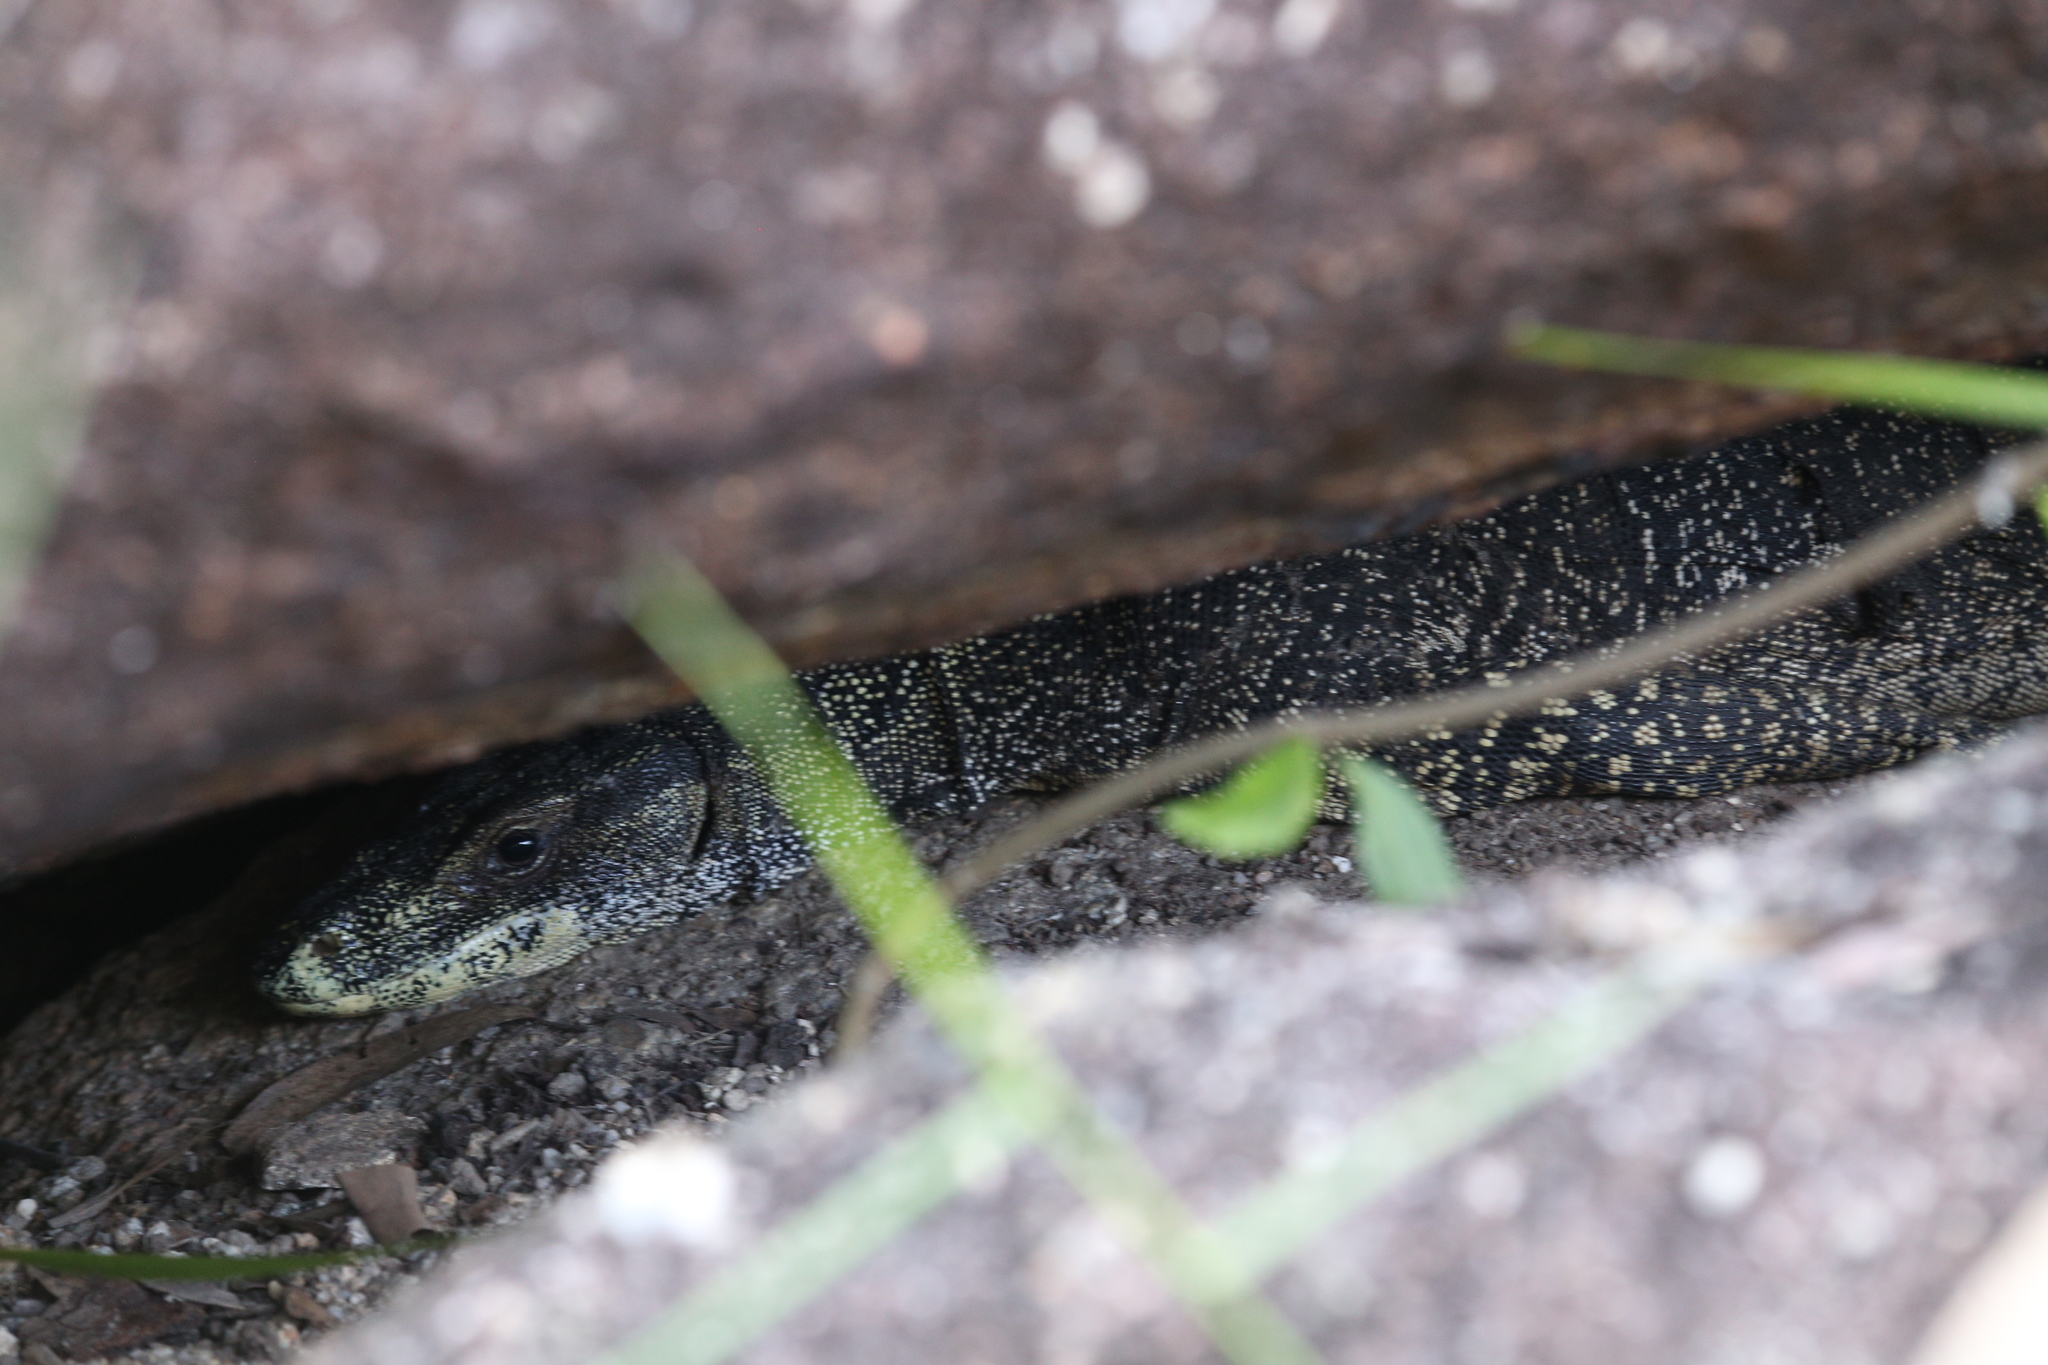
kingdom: Animalia
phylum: Chordata
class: Squamata
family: Varanidae
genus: Varanus
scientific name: Varanus varius
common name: Lace monitor
